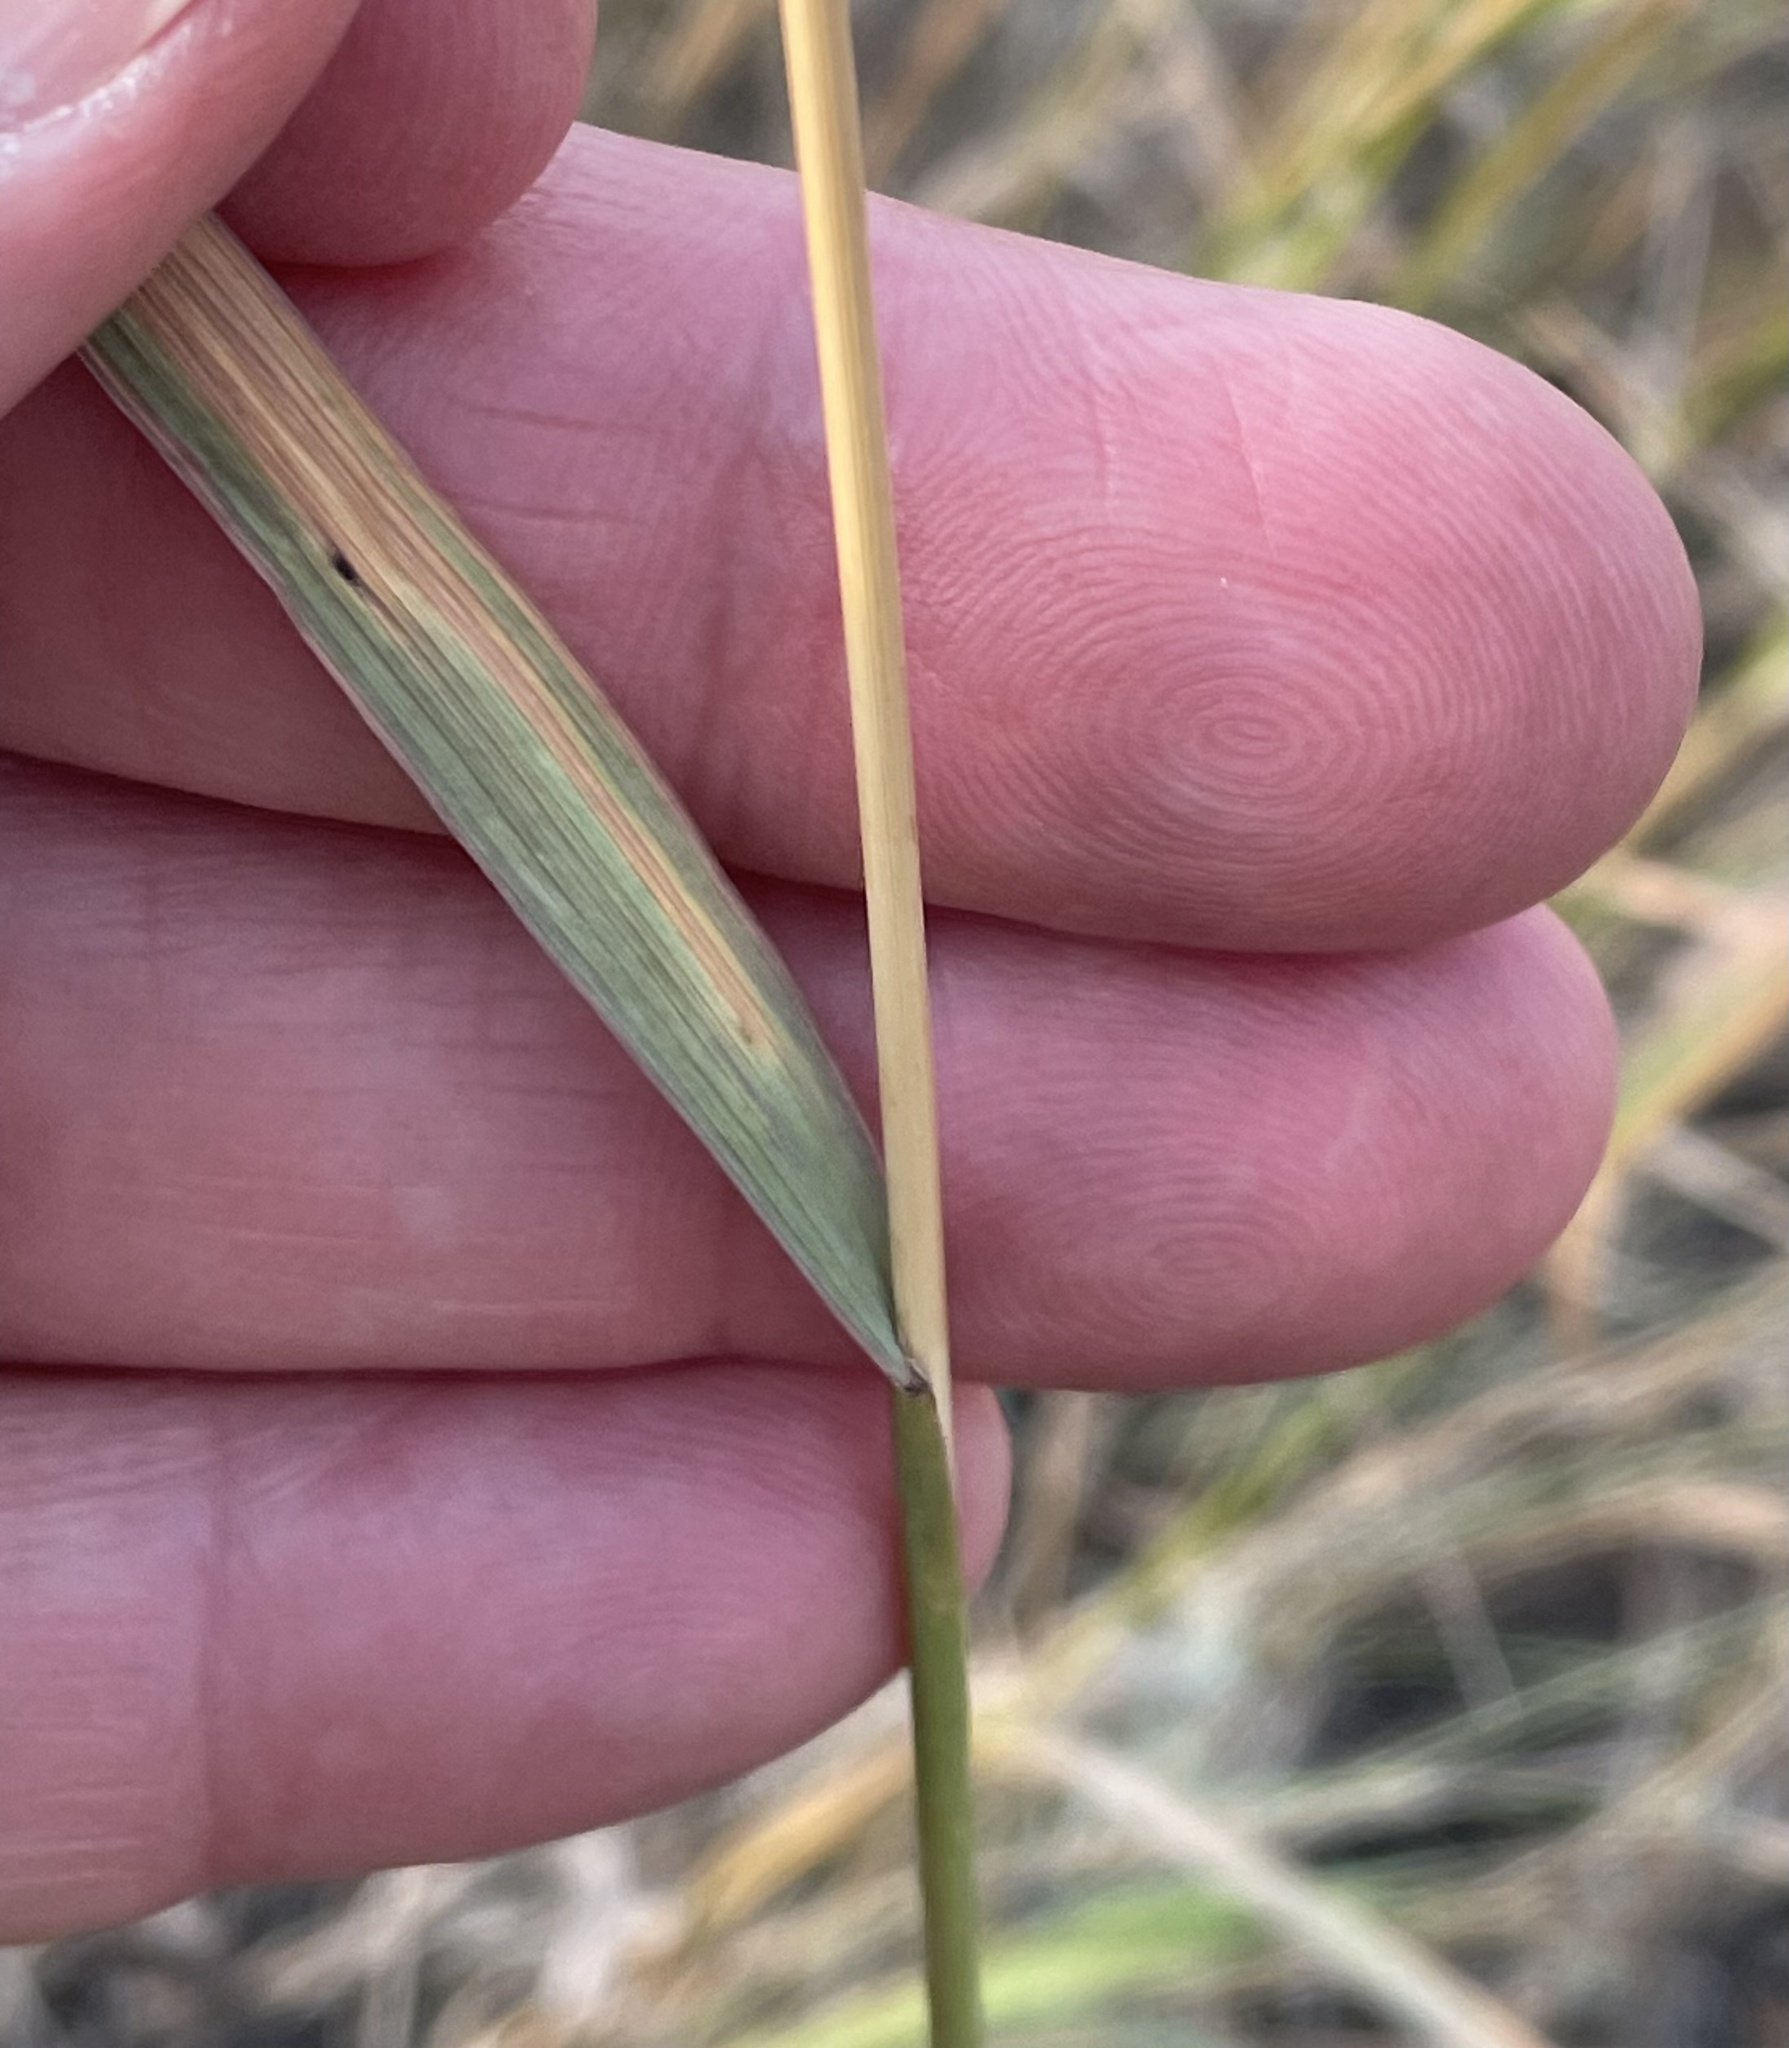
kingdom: Plantae
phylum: Tracheophyta
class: Liliopsida
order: Poales
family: Poaceae
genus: Bromus
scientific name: Bromus inermis
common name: Smooth brome
